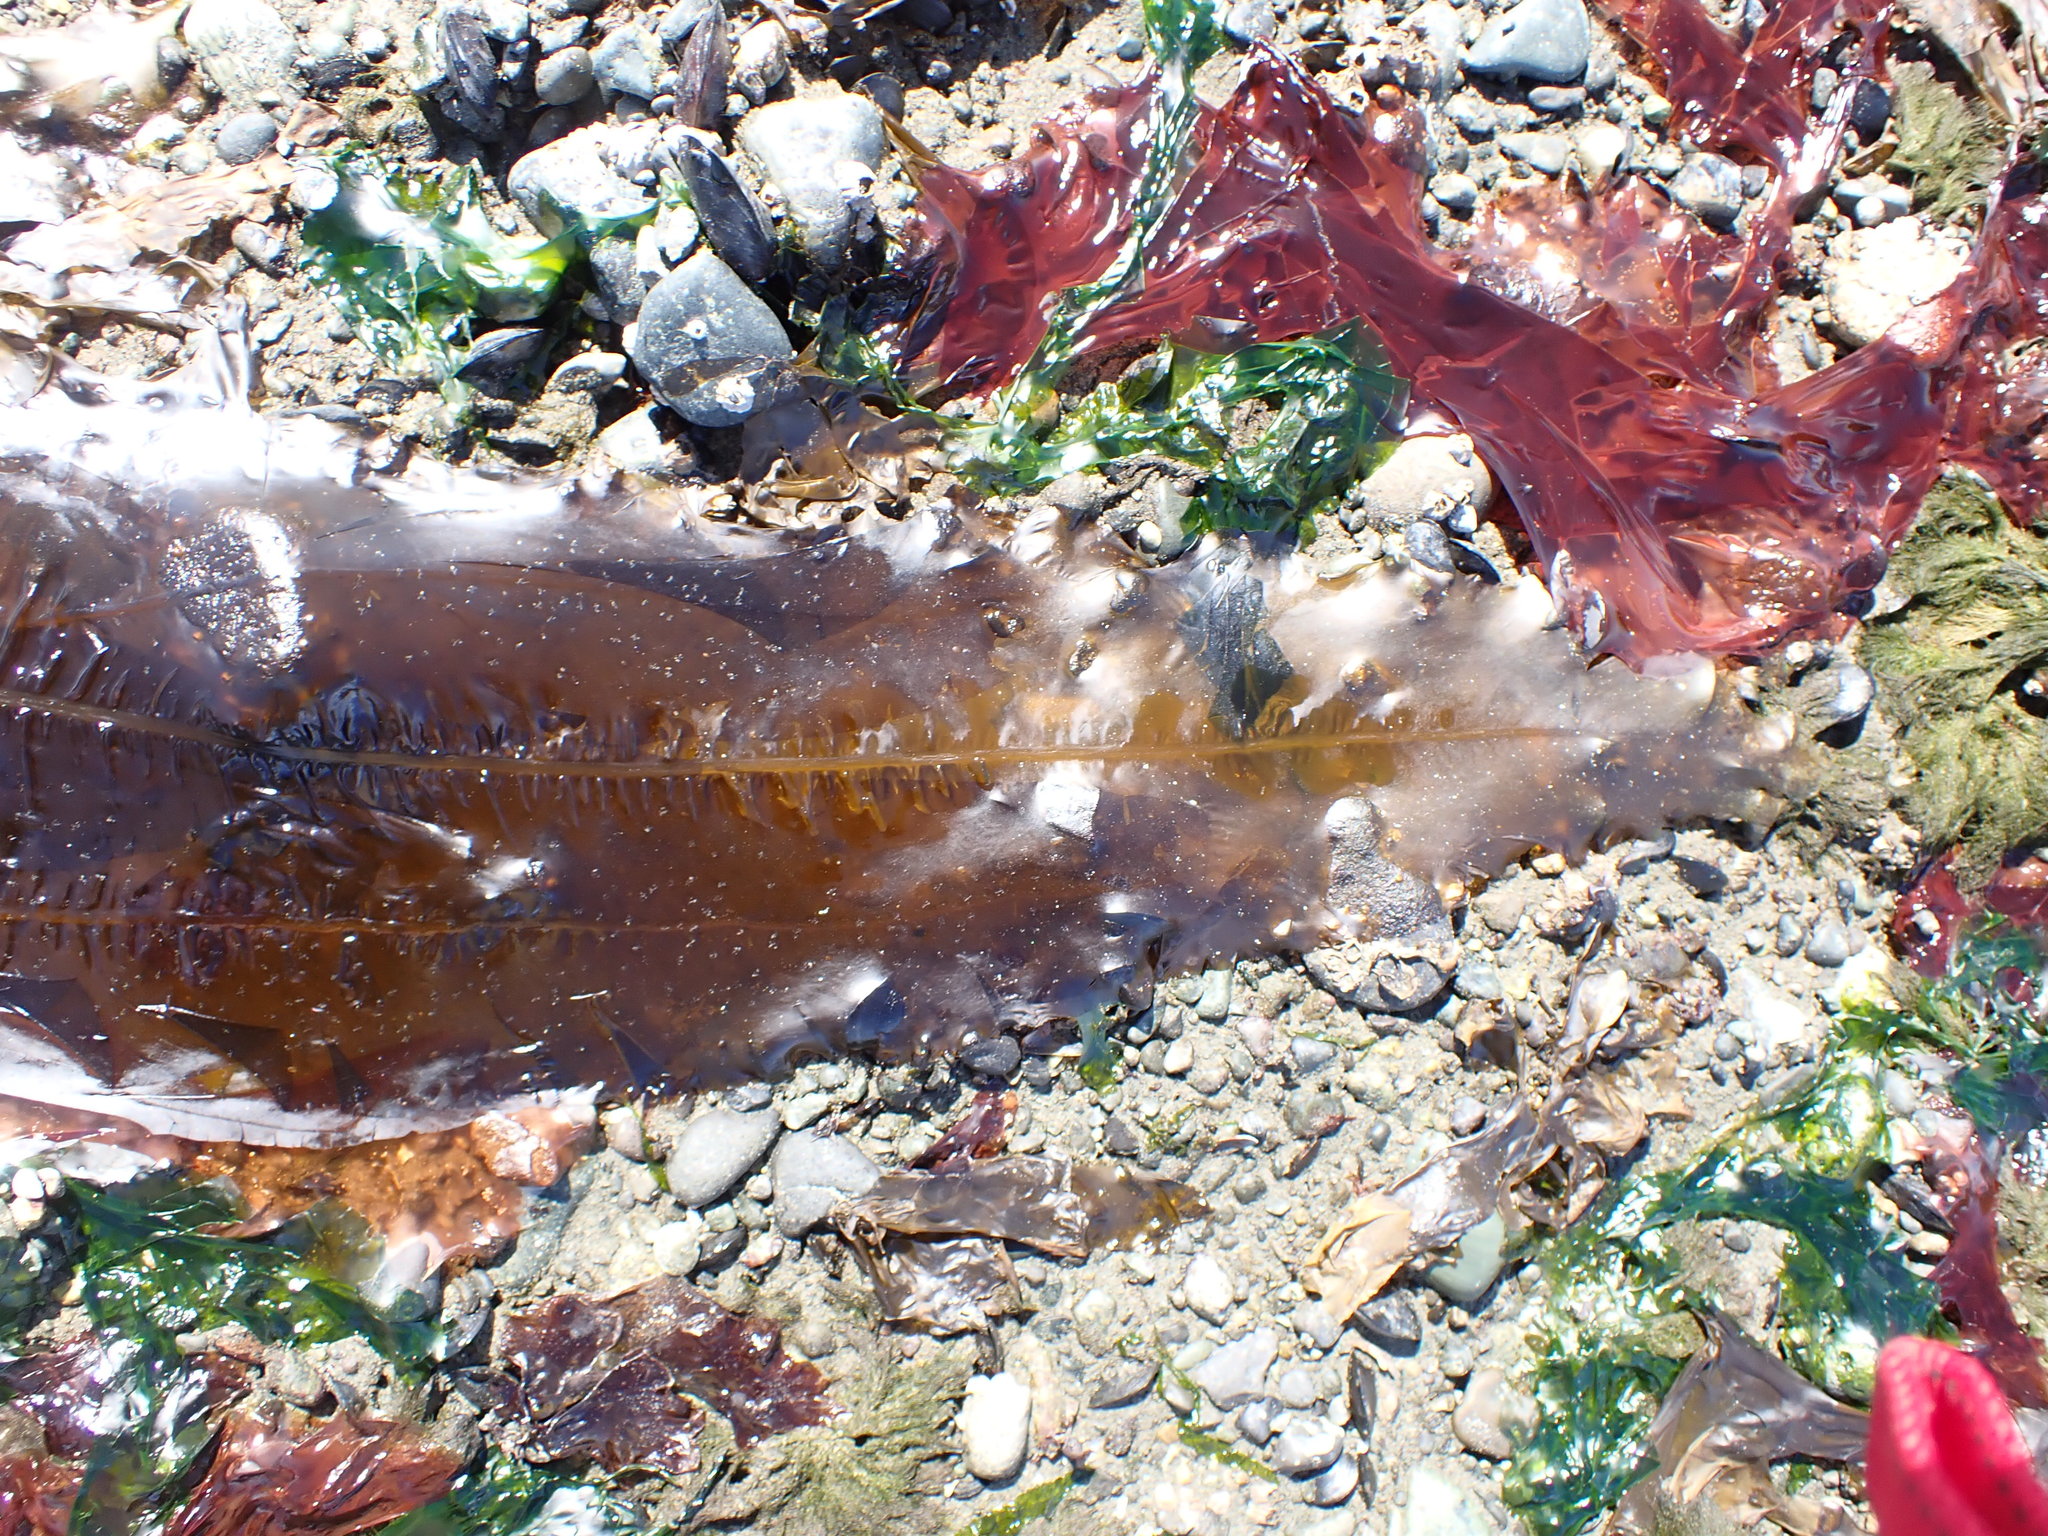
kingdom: Chromista
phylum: Ochrophyta
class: Phaeophyceae
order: Laminariales
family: Alariaceae
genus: Alaria
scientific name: Alaria marginata
